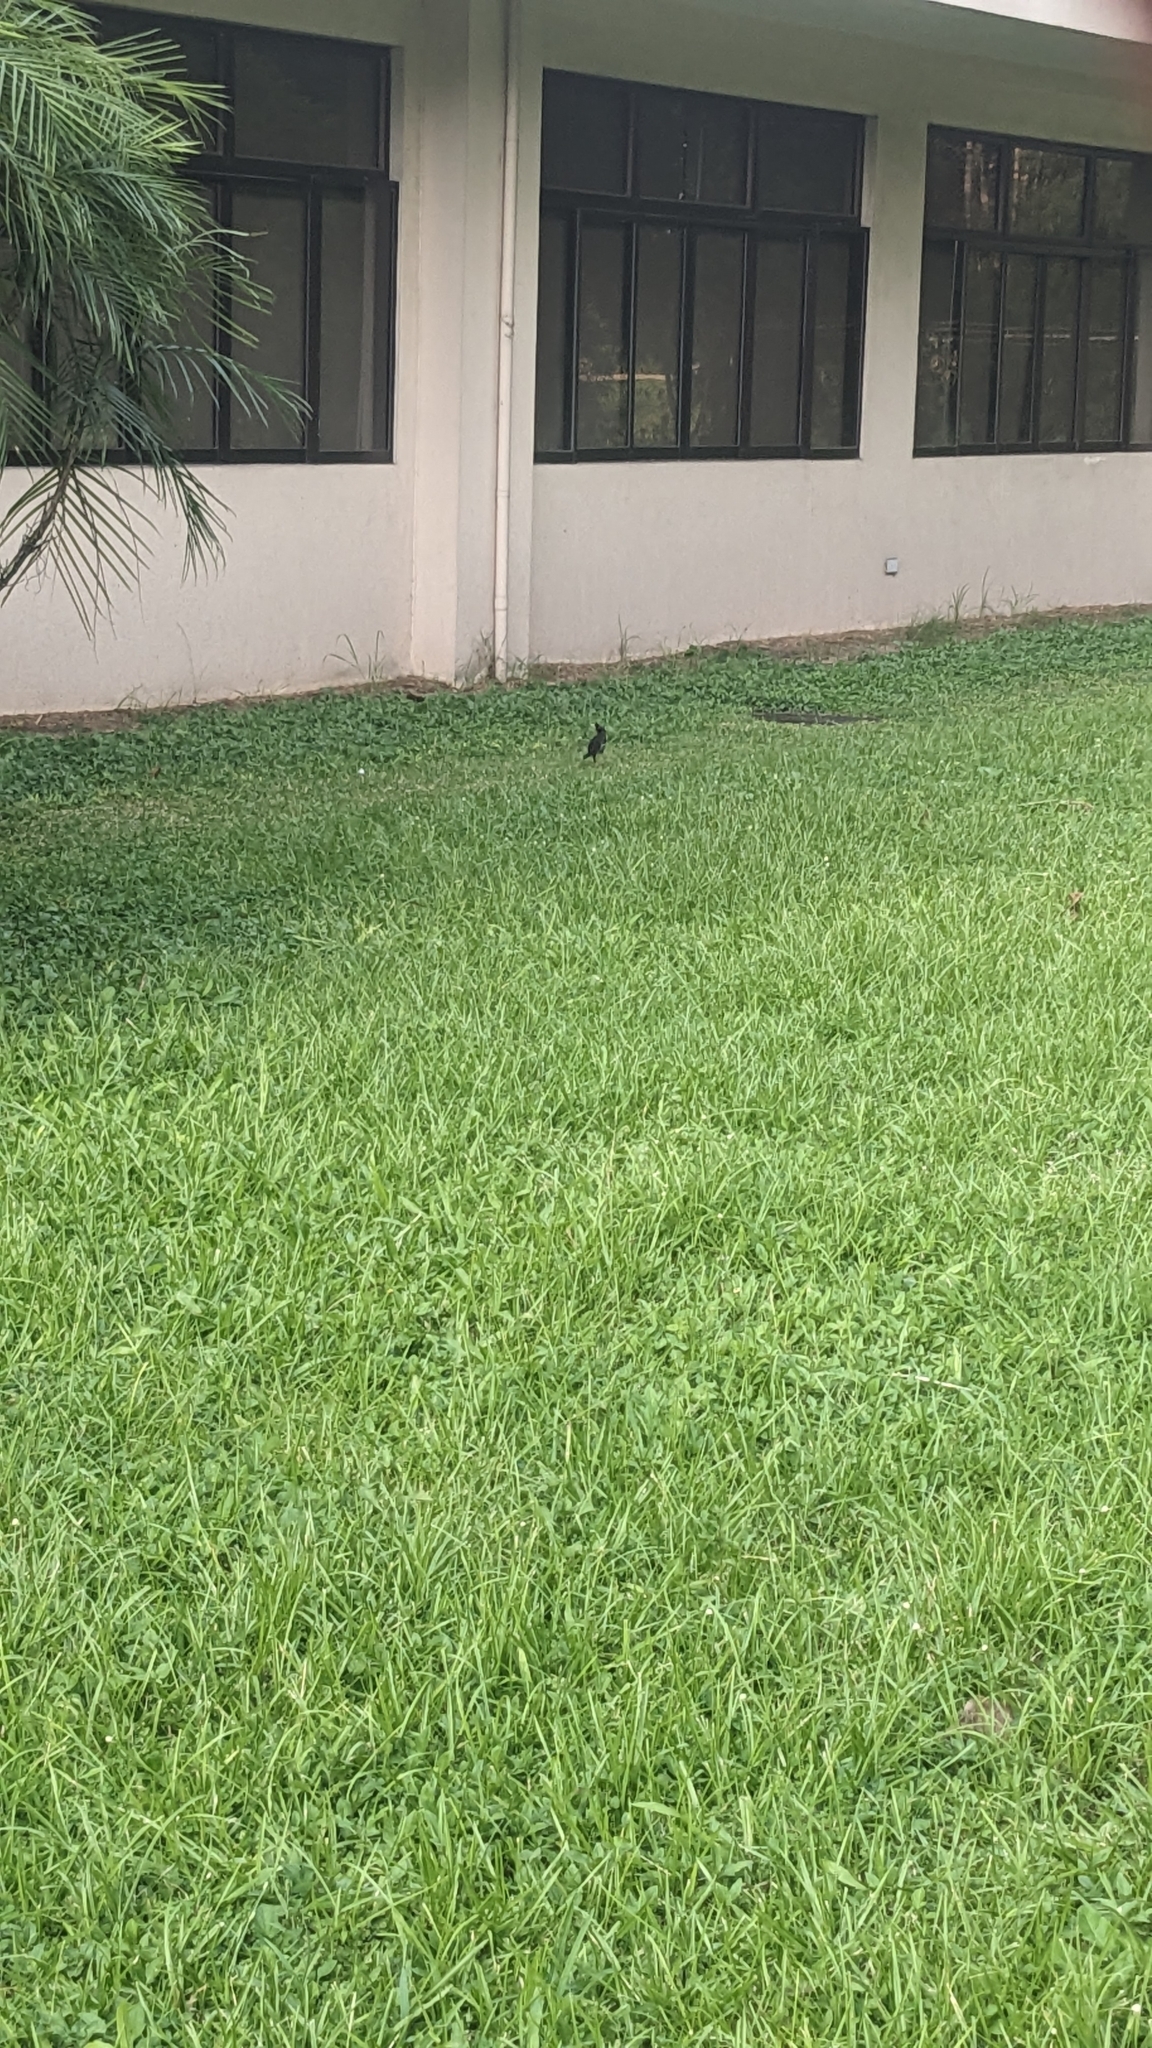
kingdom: Animalia
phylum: Chordata
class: Aves
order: Passeriformes
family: Sturnidae
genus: Acridotheres
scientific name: Acridotheres cristatellus
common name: Crested myna
